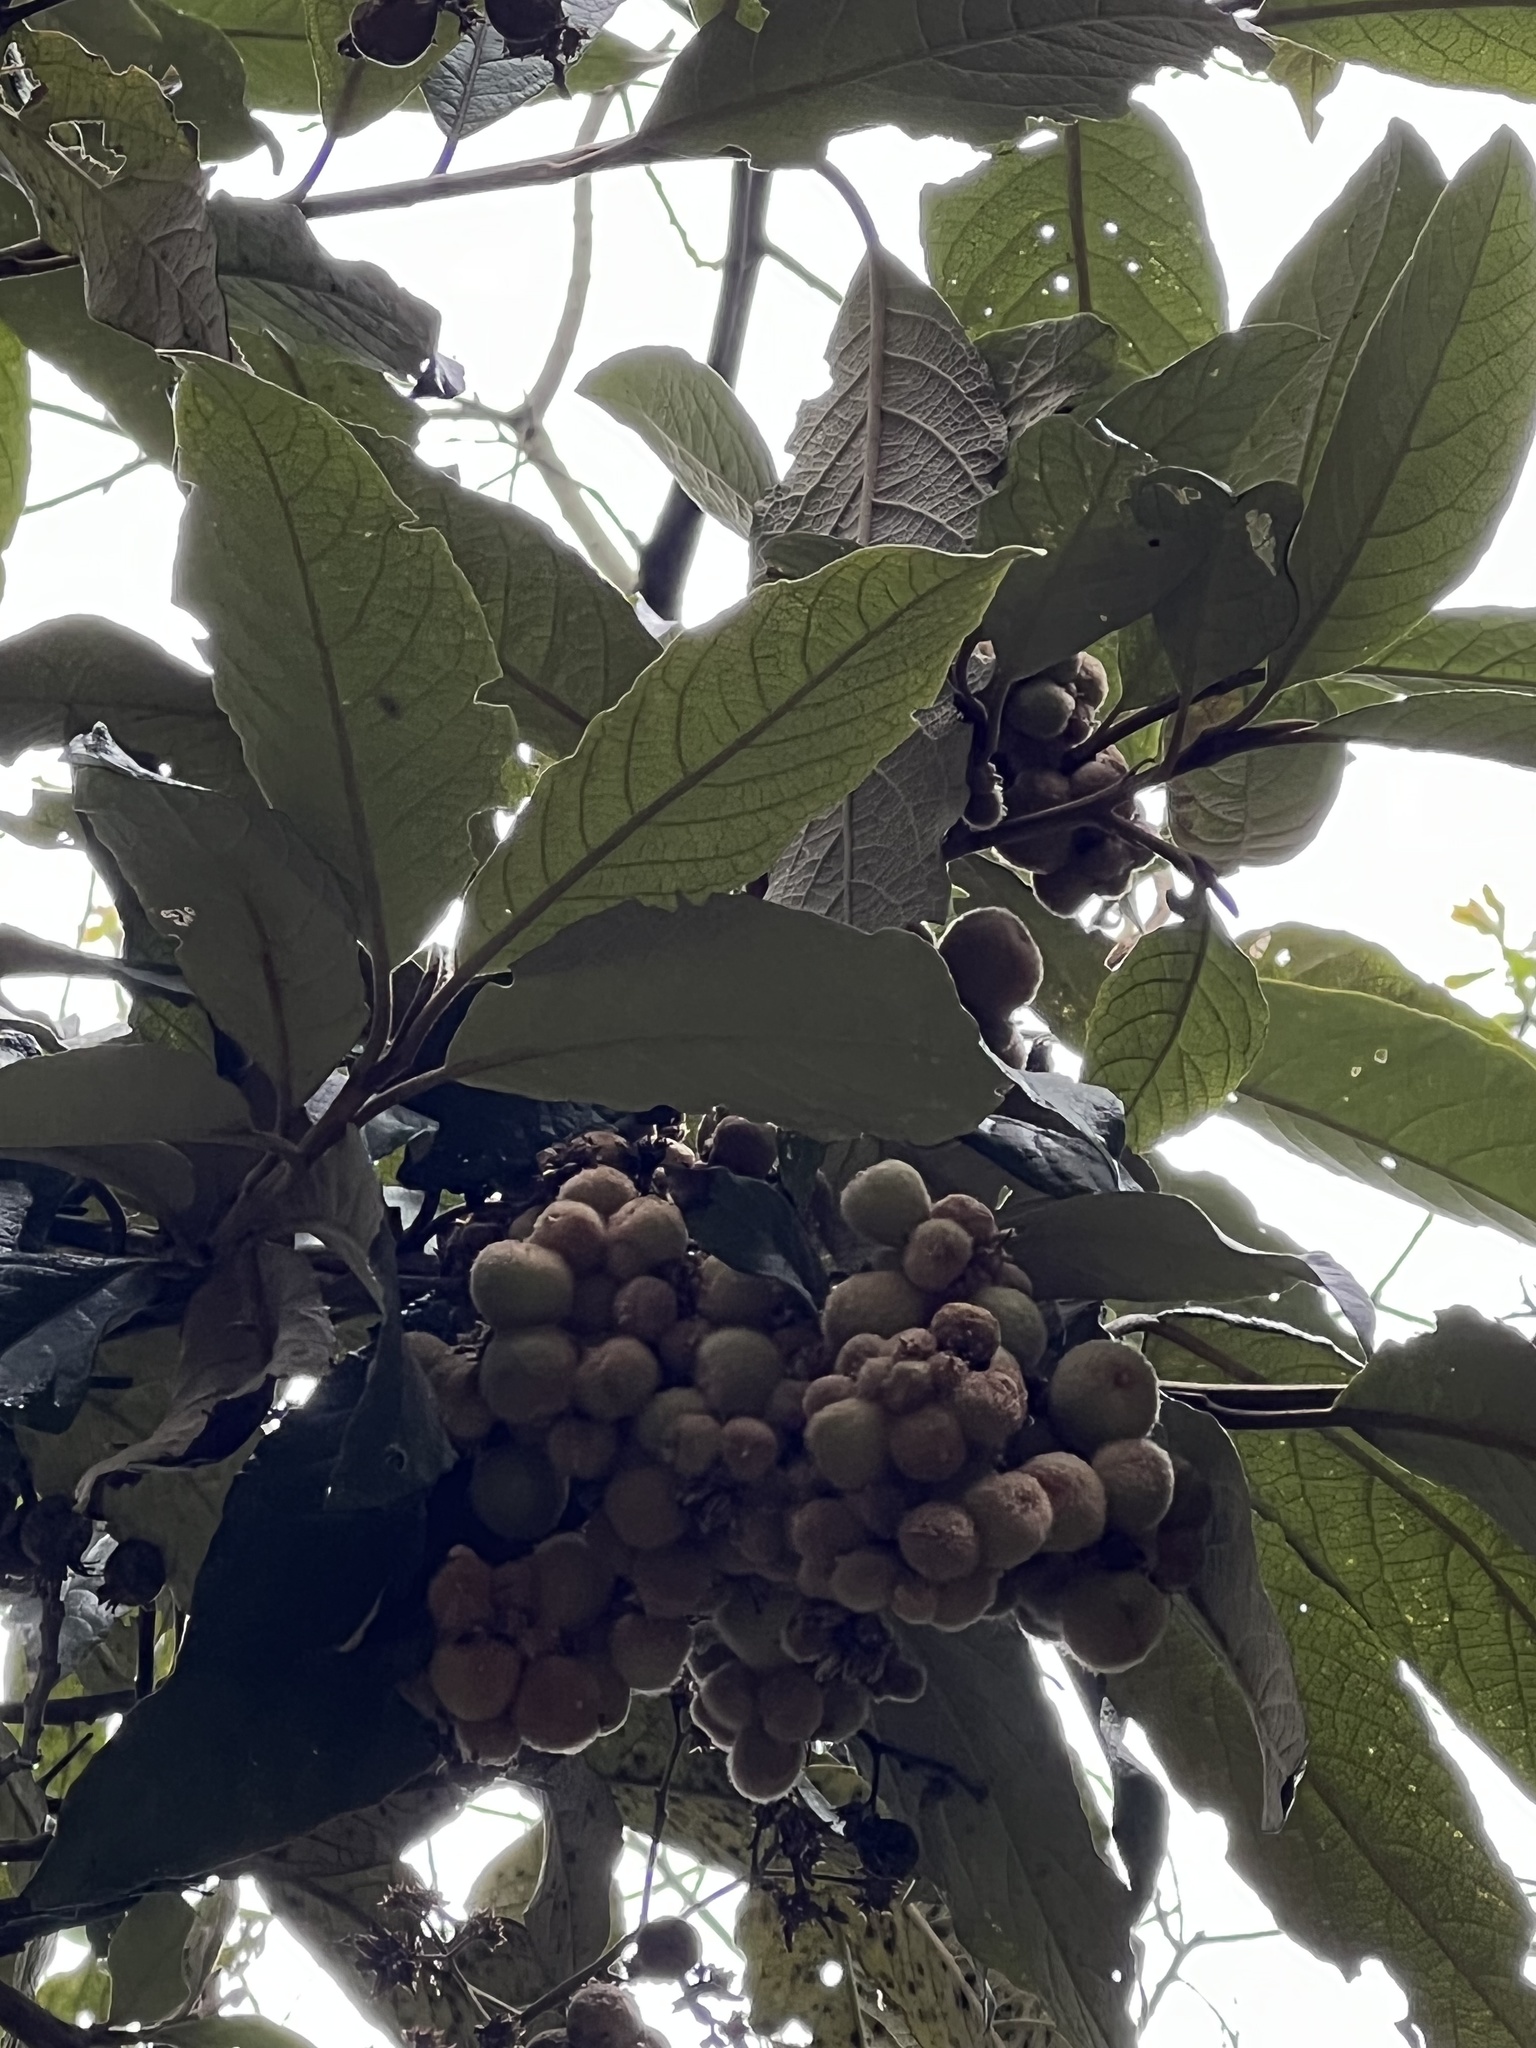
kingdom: Plantae
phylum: Tracheophyta
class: Magnoliopsida
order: Lamiales
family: Scrophulariaceae
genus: Buddleja
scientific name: Buddleja bullata
